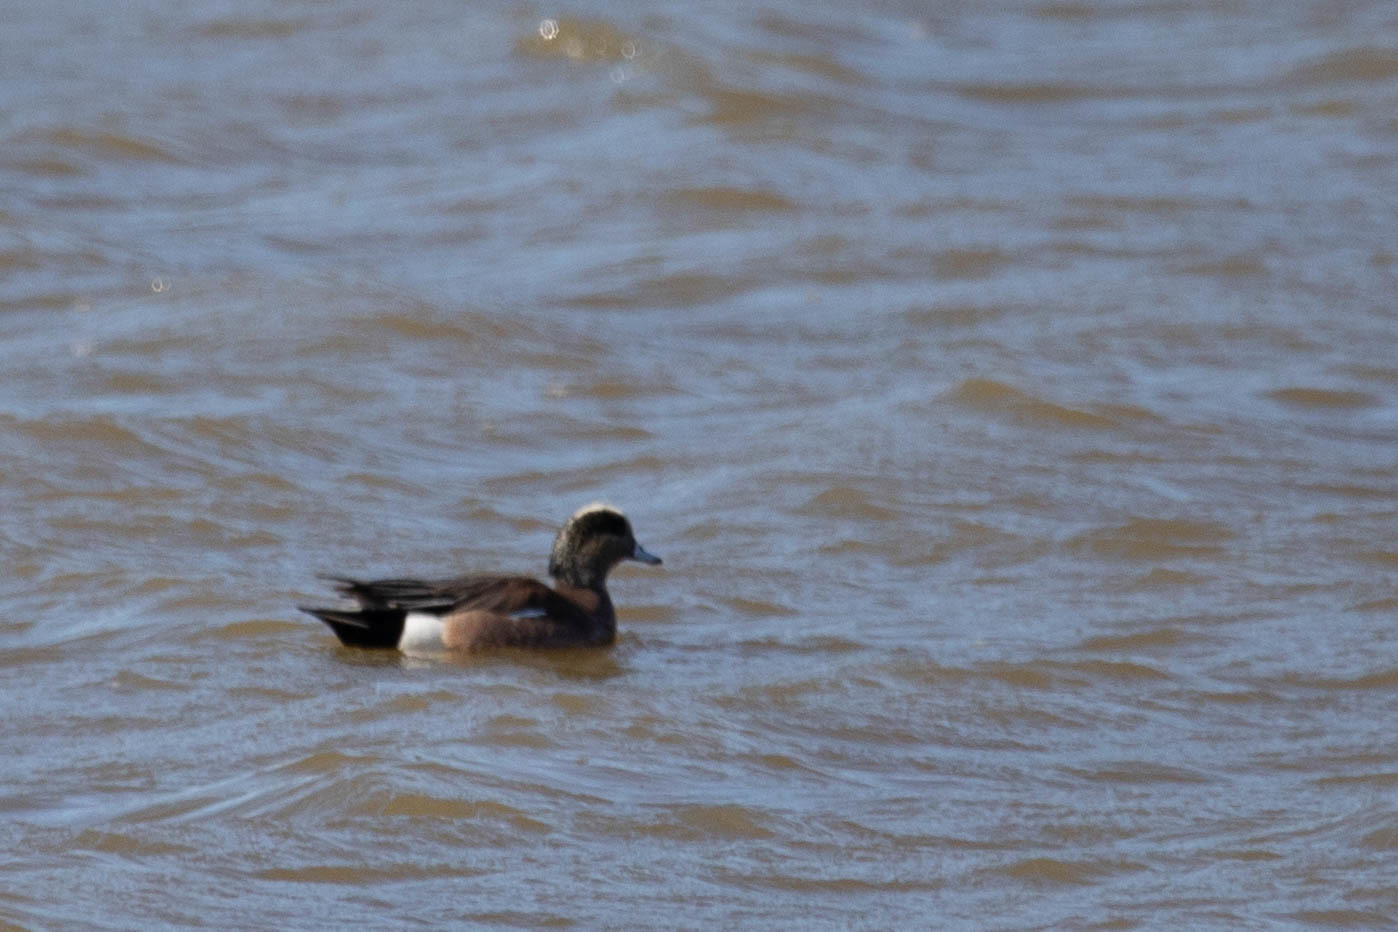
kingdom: Animalia
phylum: Chordata
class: Aves
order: Anseriformes
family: Anatidae
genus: Mareca
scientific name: Mareca americana
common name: American wigeon
